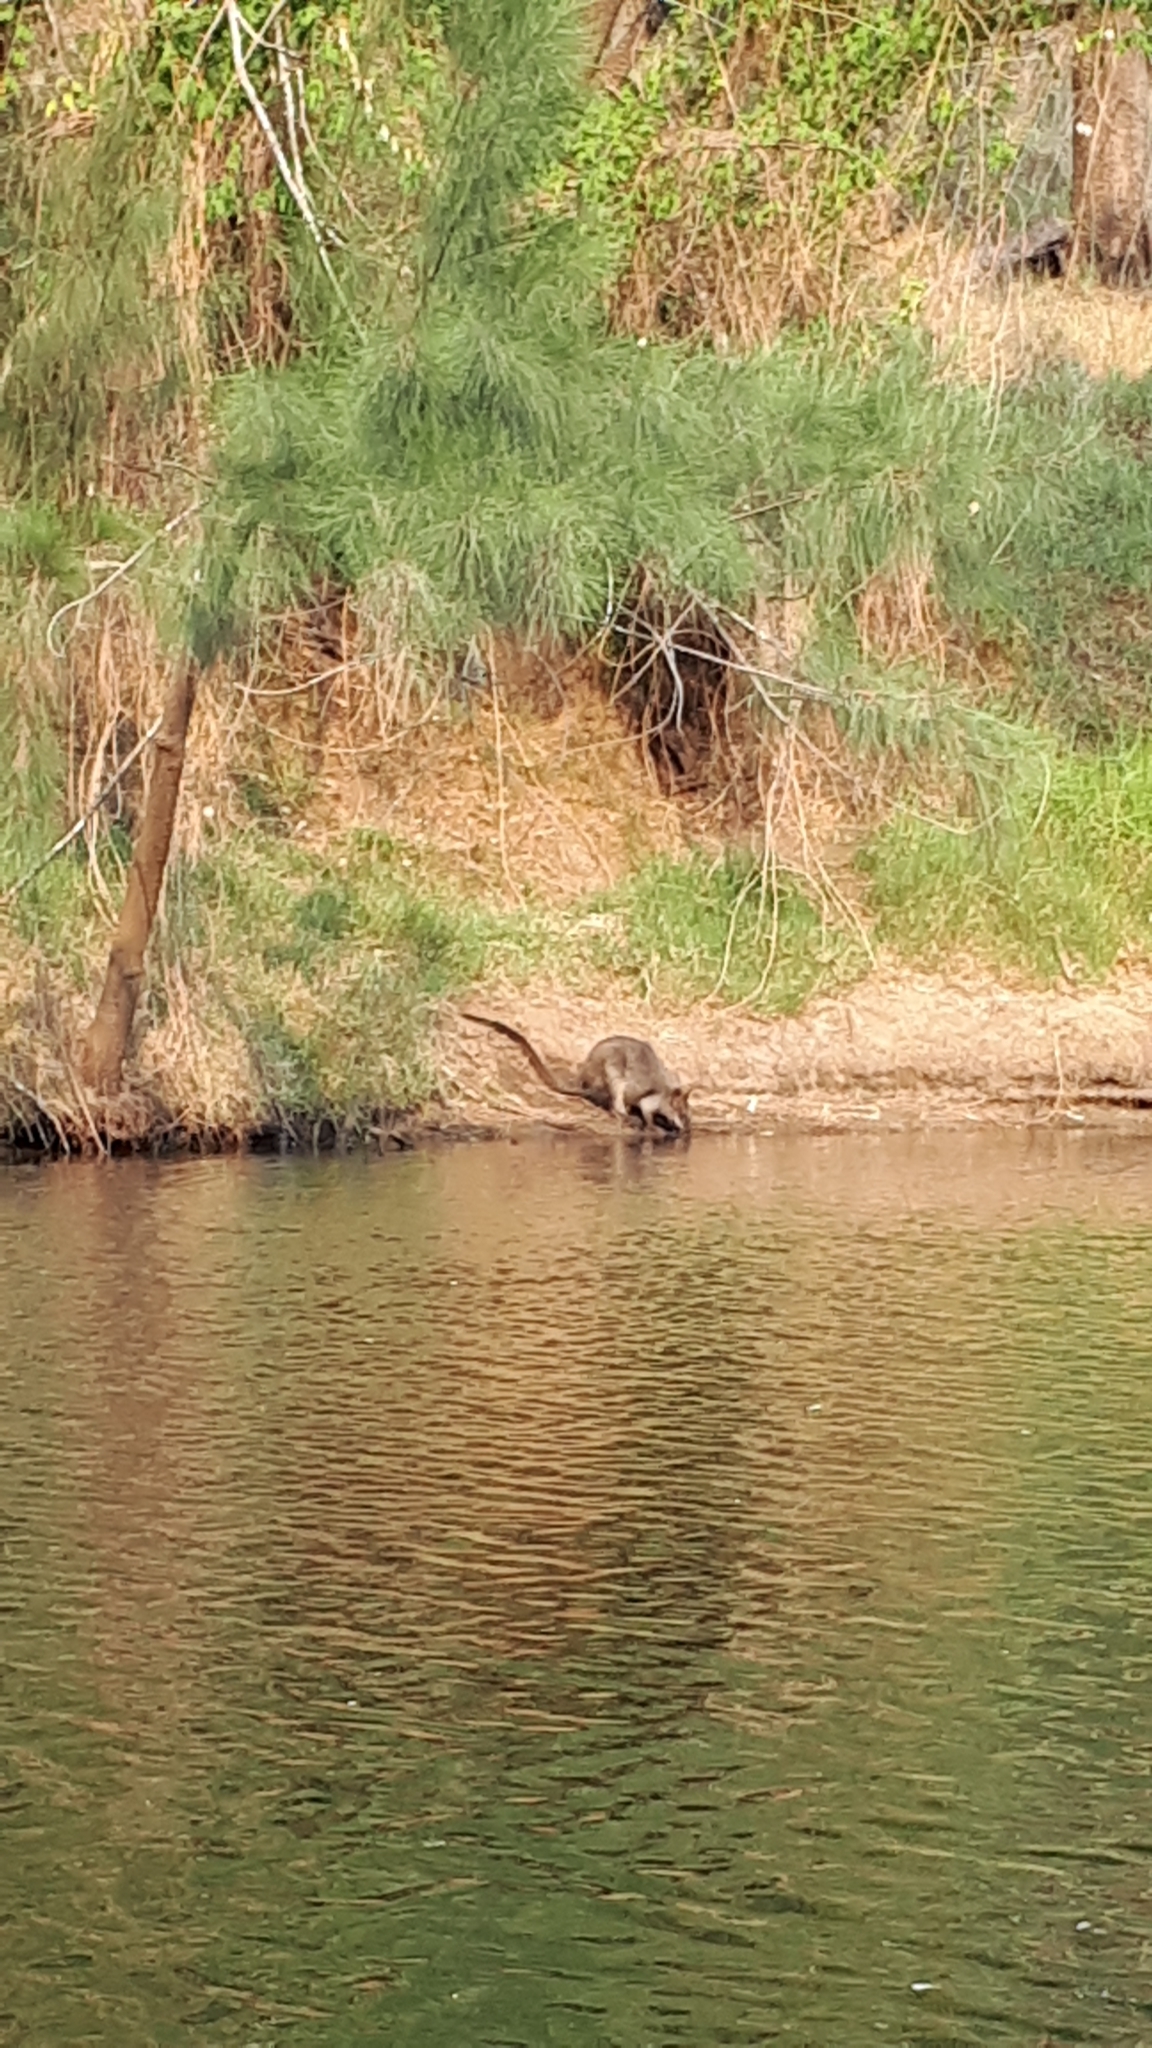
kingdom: Animalia
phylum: Chordata
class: Mammalia
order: Diprotodontia
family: Macropodidae
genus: Wallabia
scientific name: Wallabia bicolor
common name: Swamp wallaby
